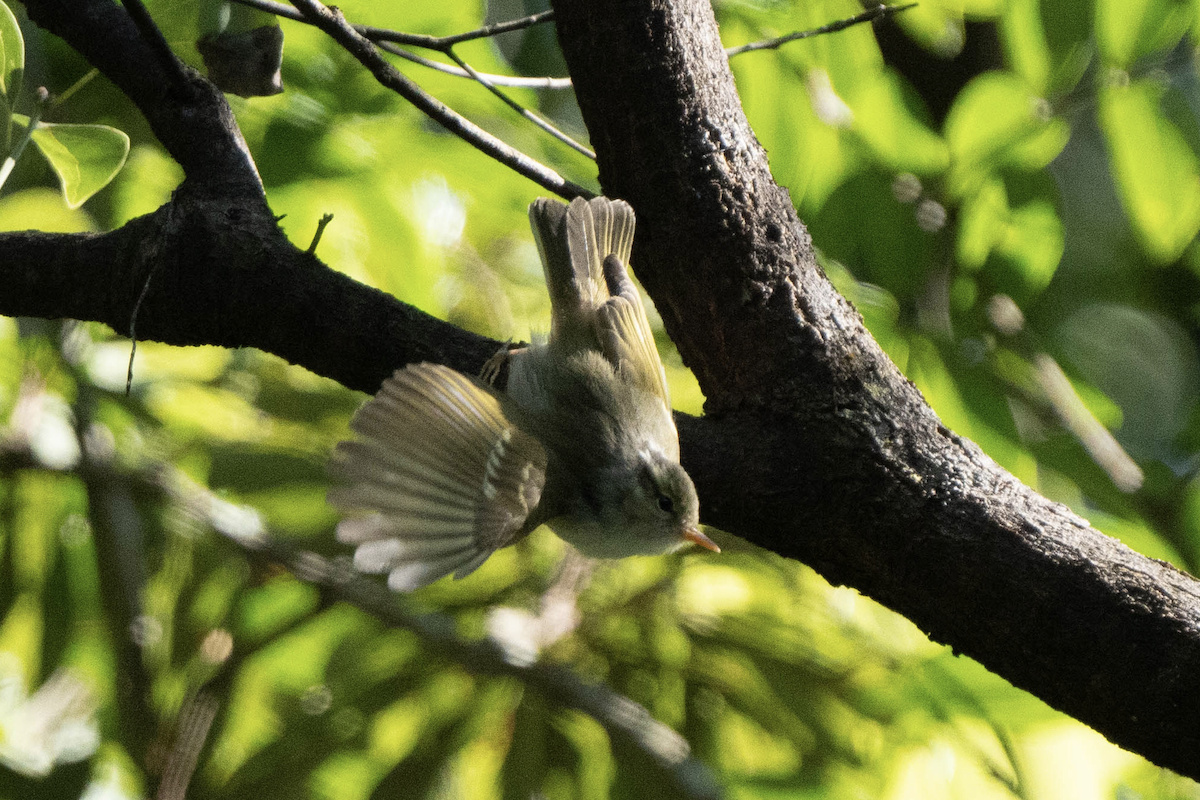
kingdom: Animalia
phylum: Chordata
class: Aves
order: Passeriformes
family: Phylloscopidae
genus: Phylloscopus
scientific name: Phylloscopus goodsoni
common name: Hartert's leaf warbler
